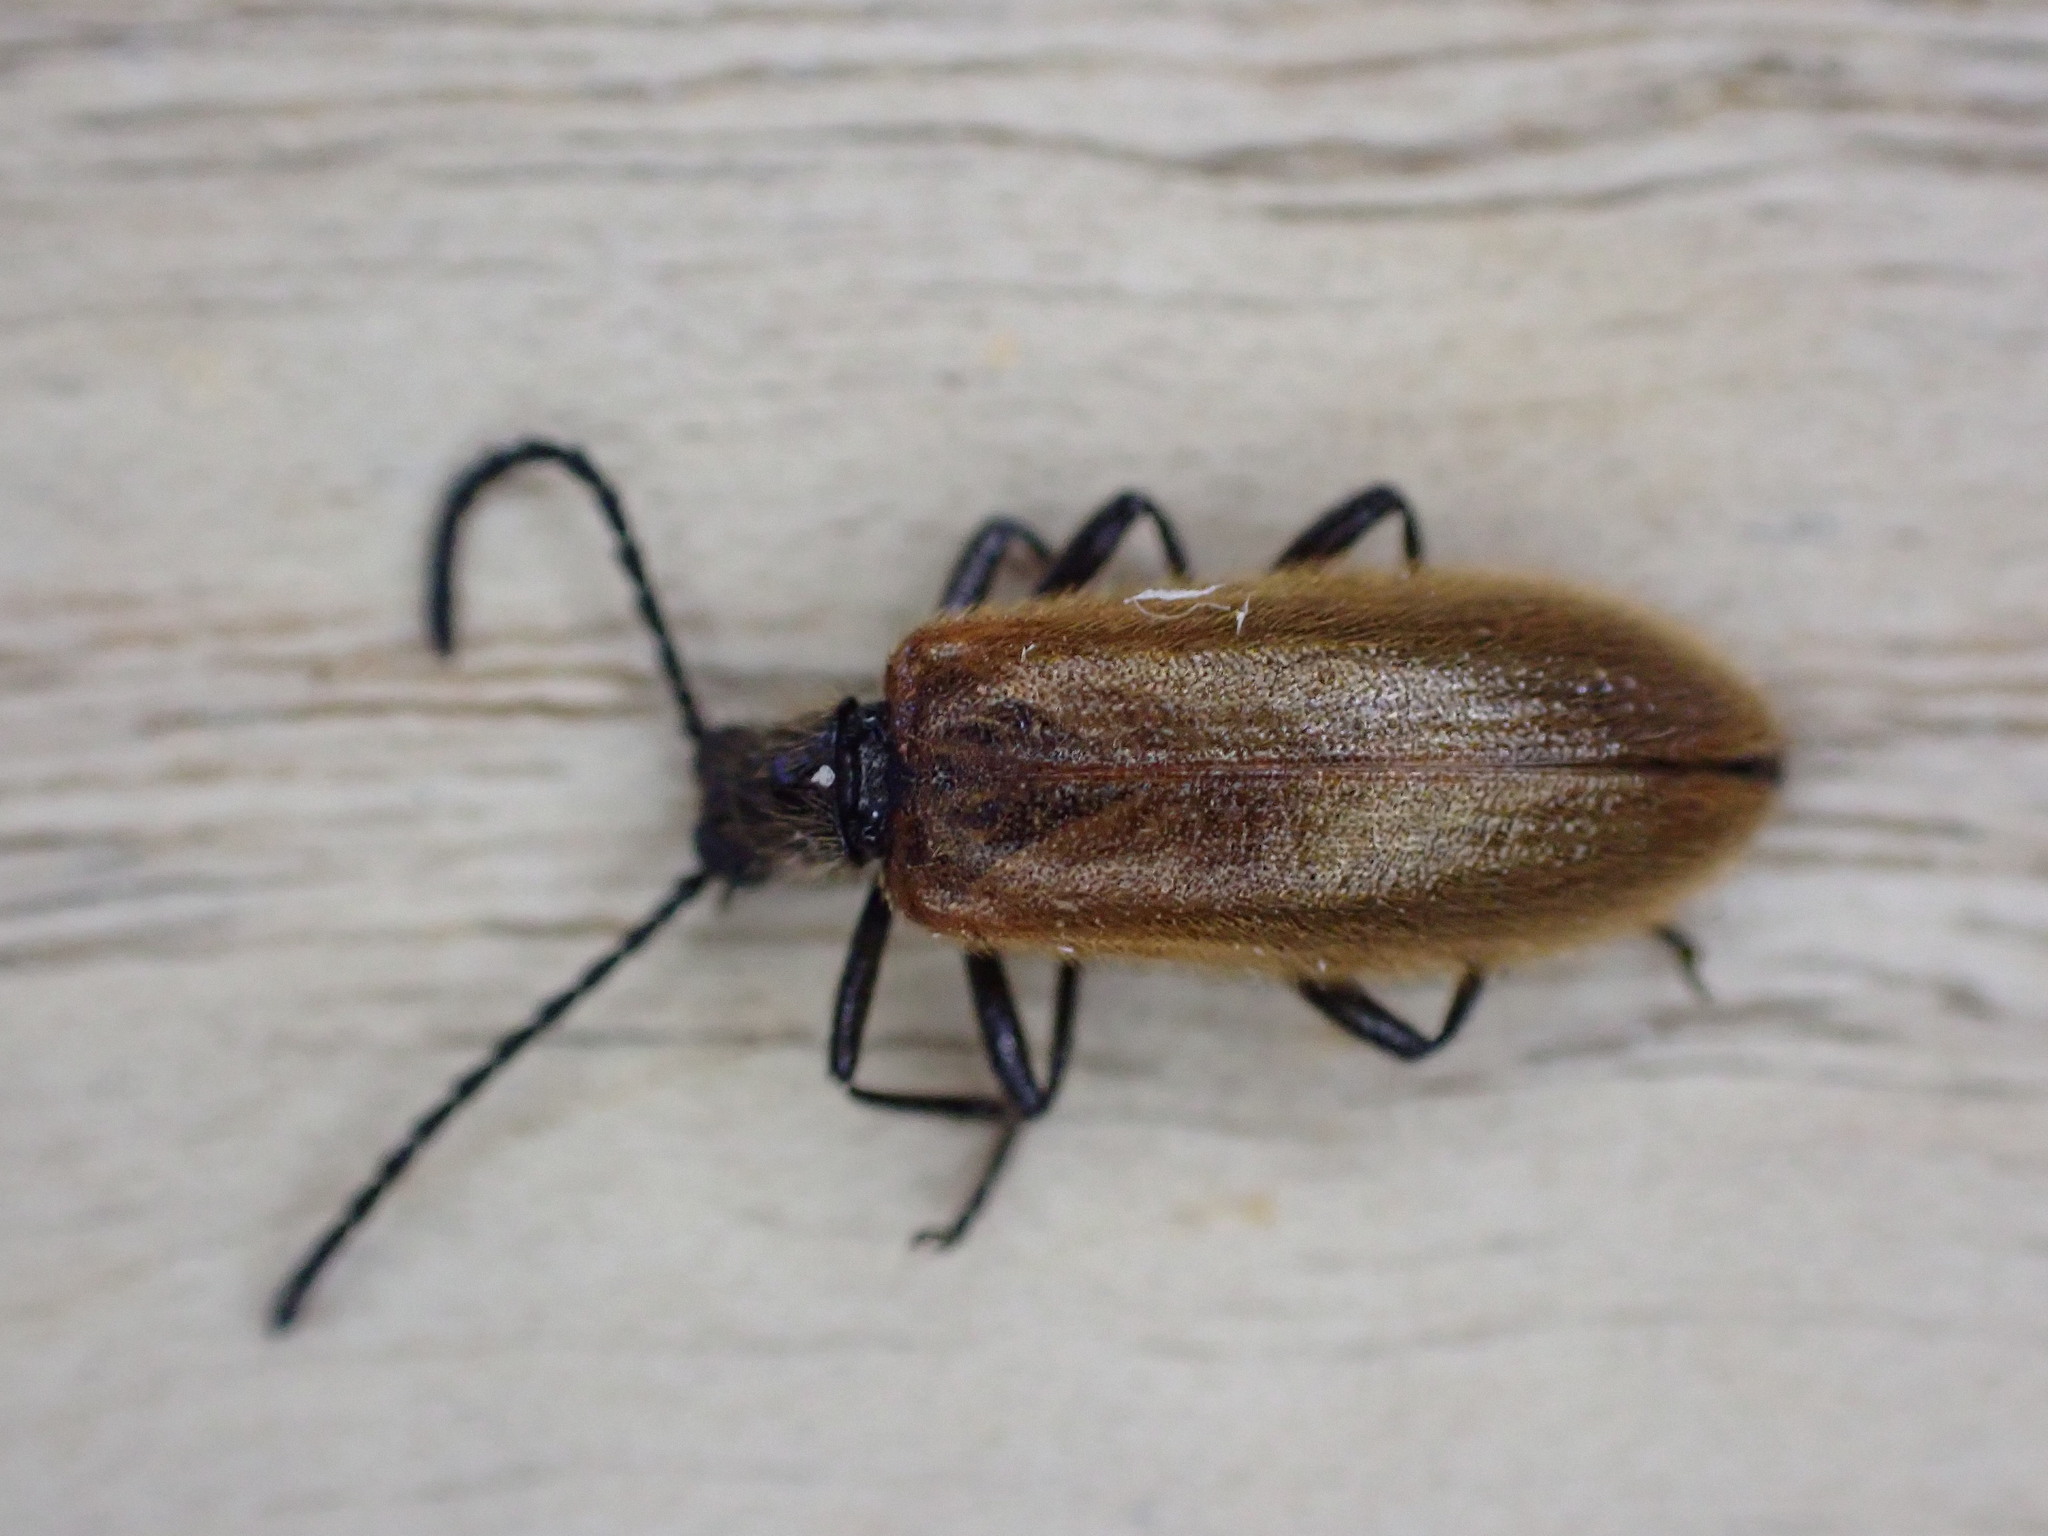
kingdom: Animalia
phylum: Arthropoda
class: Insecta
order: Coleoptera
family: Tenebrionidae
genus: Lagria
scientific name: Lagria hirta
